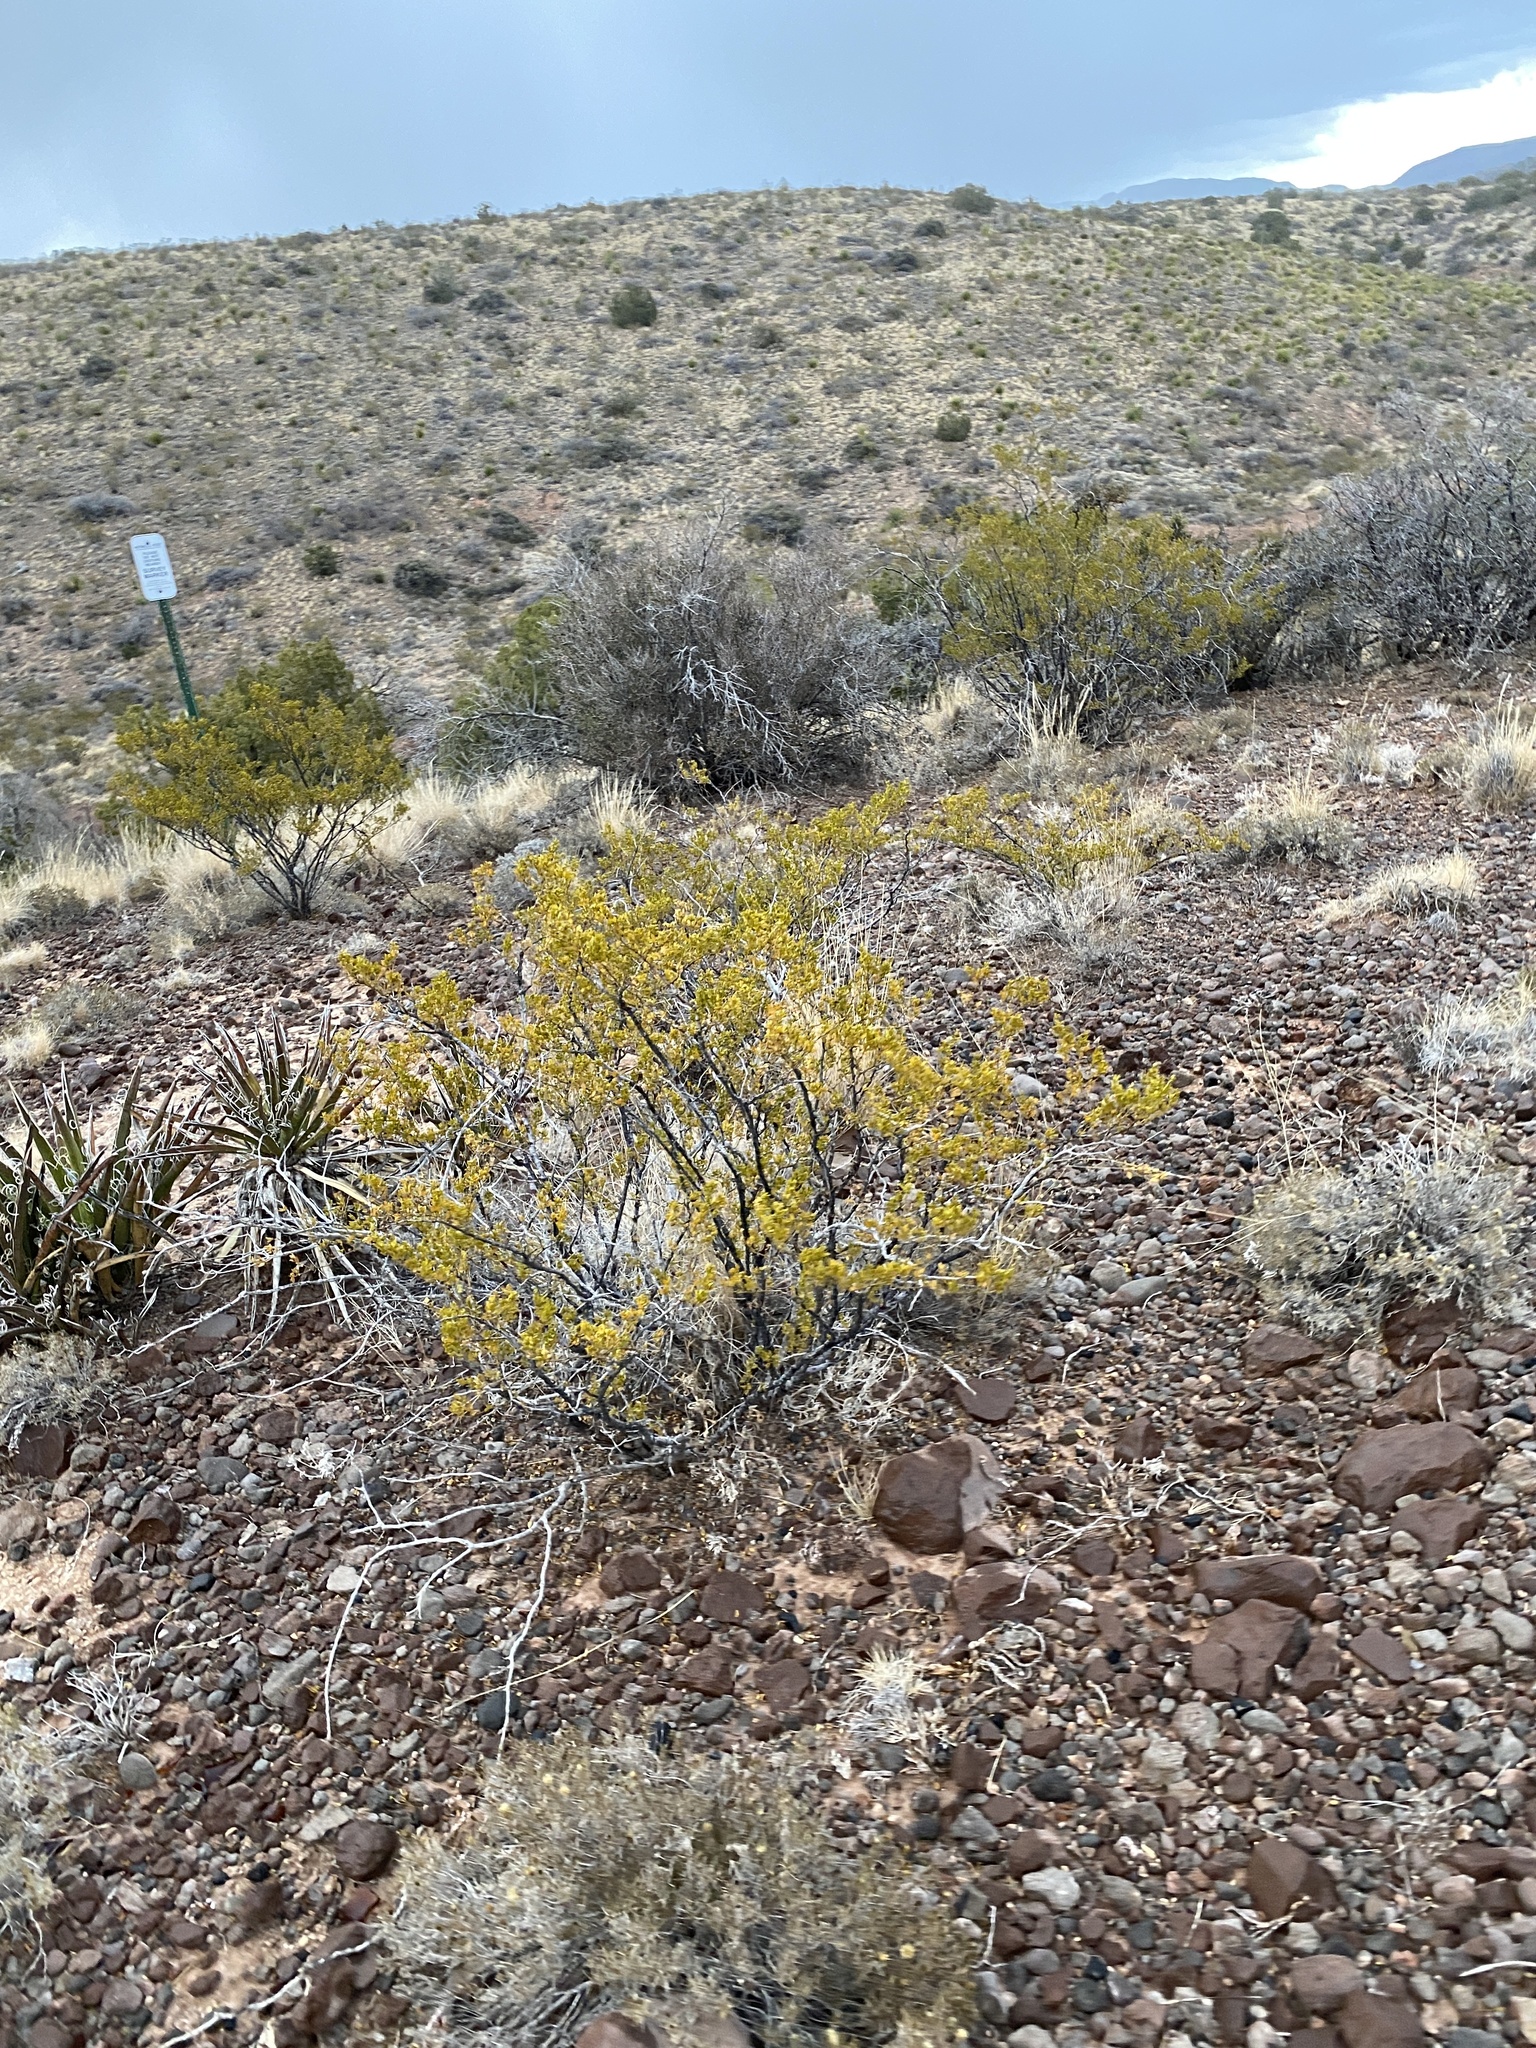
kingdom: Plantae
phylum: Tracheophyta
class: Magnoliopsida
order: Zygophyllales
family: Zygophyllaceae
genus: Larrea
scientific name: Larrea tridentata
